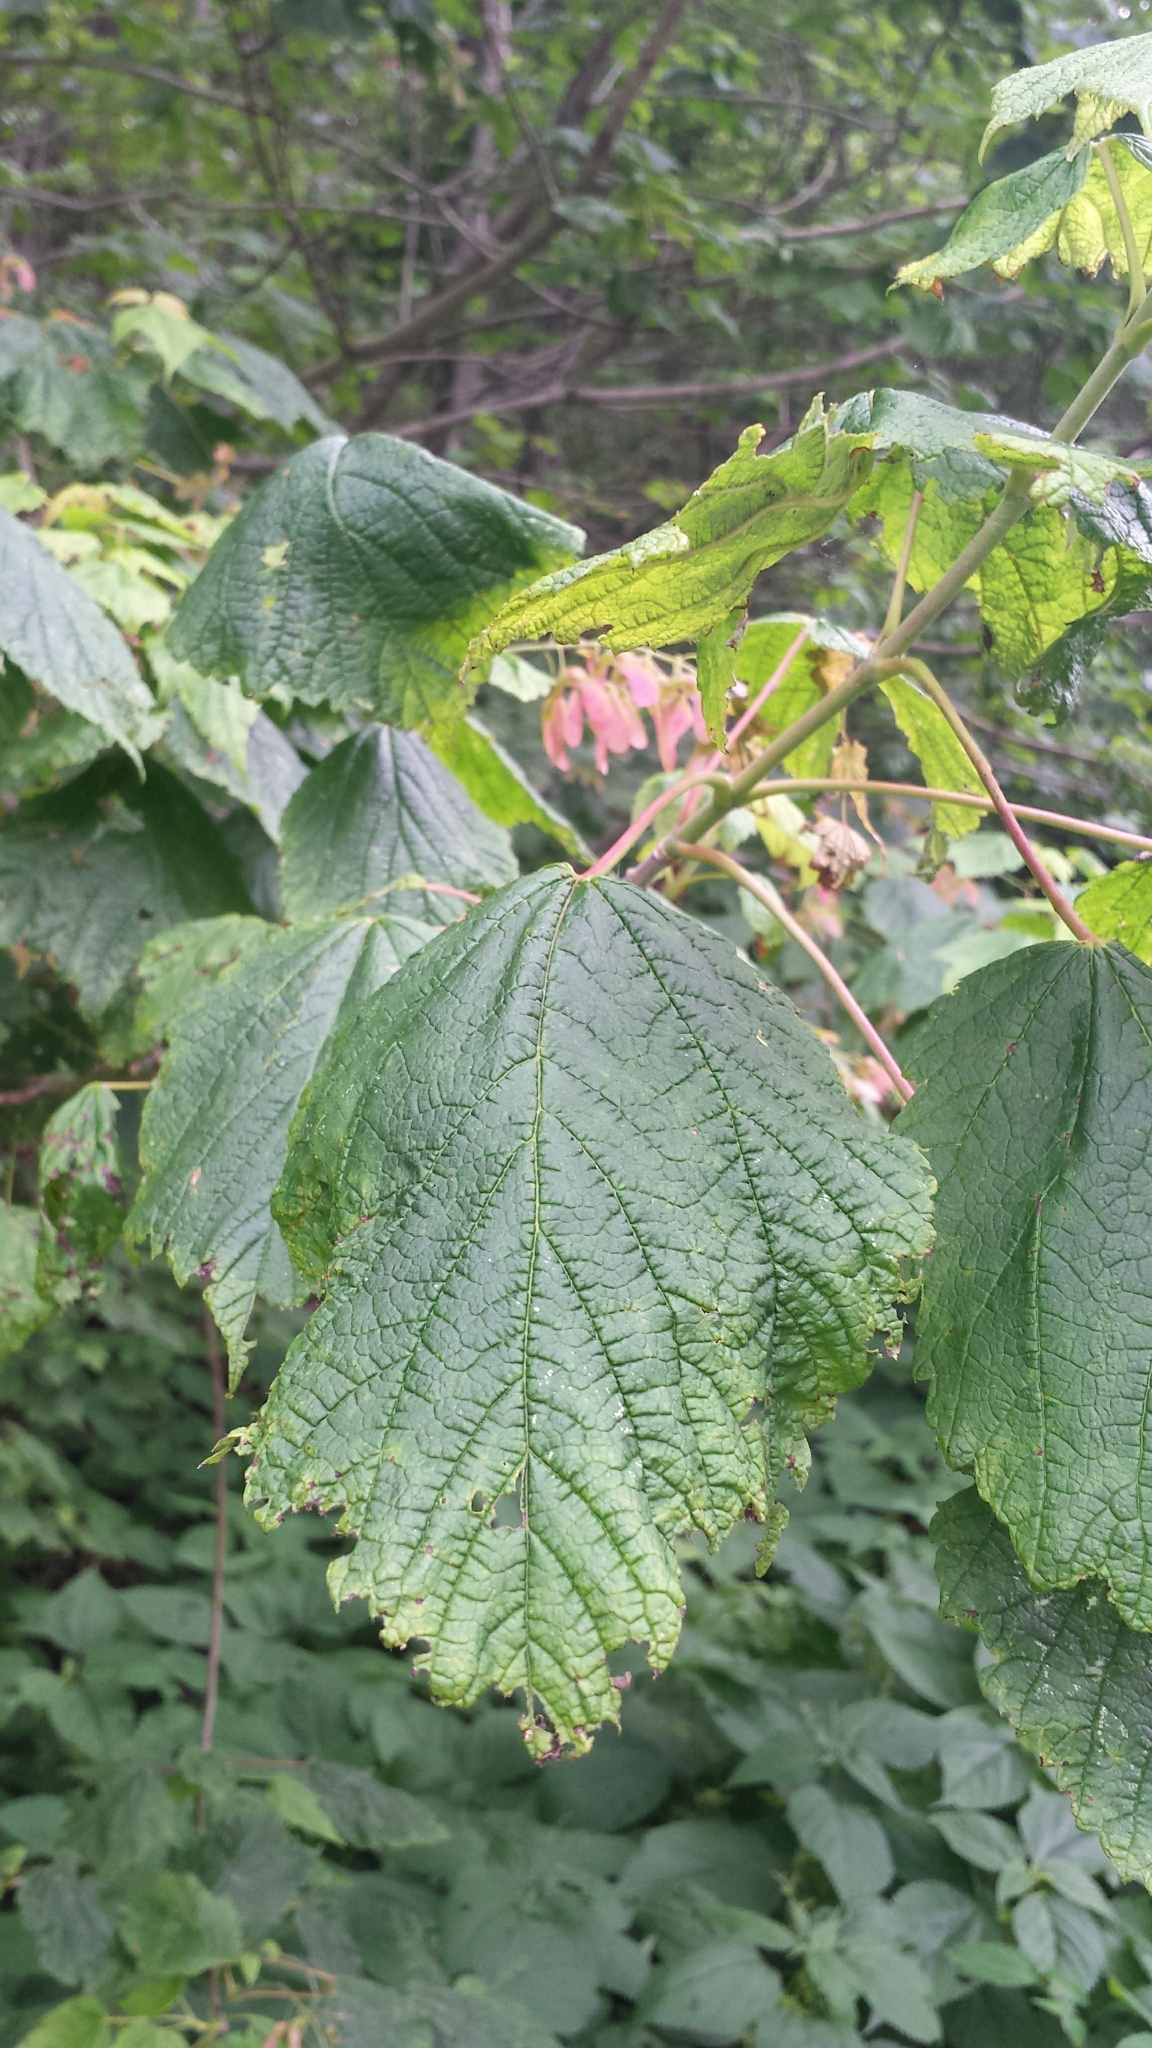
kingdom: Plantae
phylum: Tracheophyta
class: Magnoliopsida
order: Sapindales
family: Sapindaceae
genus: Acer
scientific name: Acer spicatum
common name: Mountain maple
